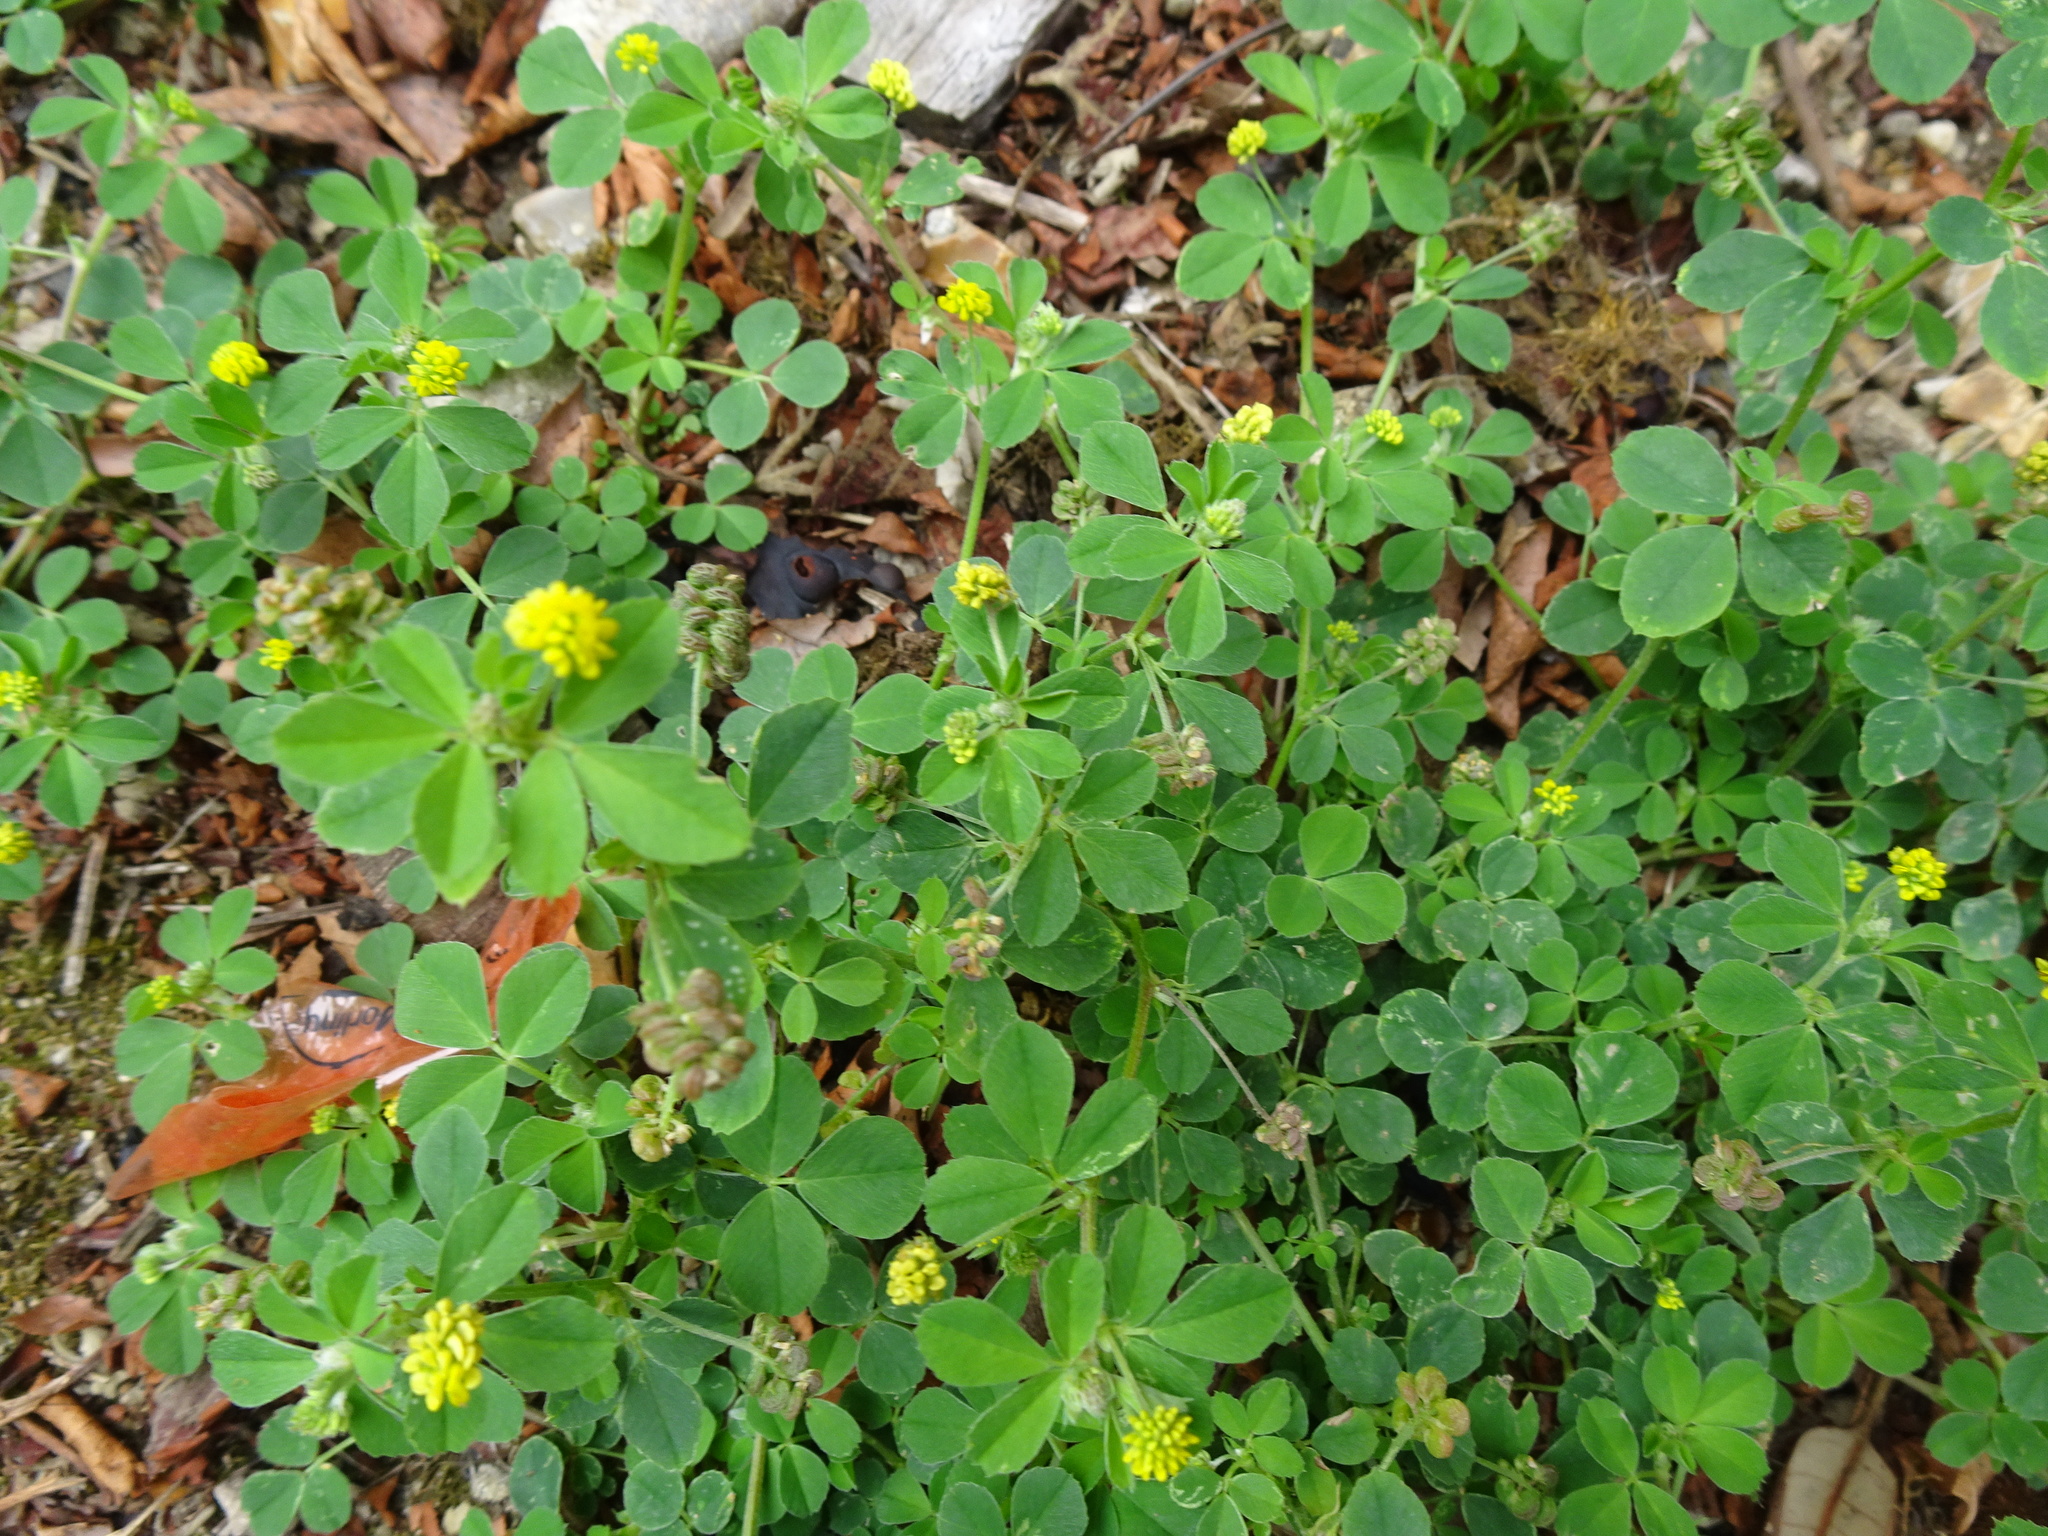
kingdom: Plantae
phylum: Tracheophyta
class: Magnoliopsida
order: Fabales
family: Fabaceae
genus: Medicago
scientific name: Medicago lupulina
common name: Black medick
